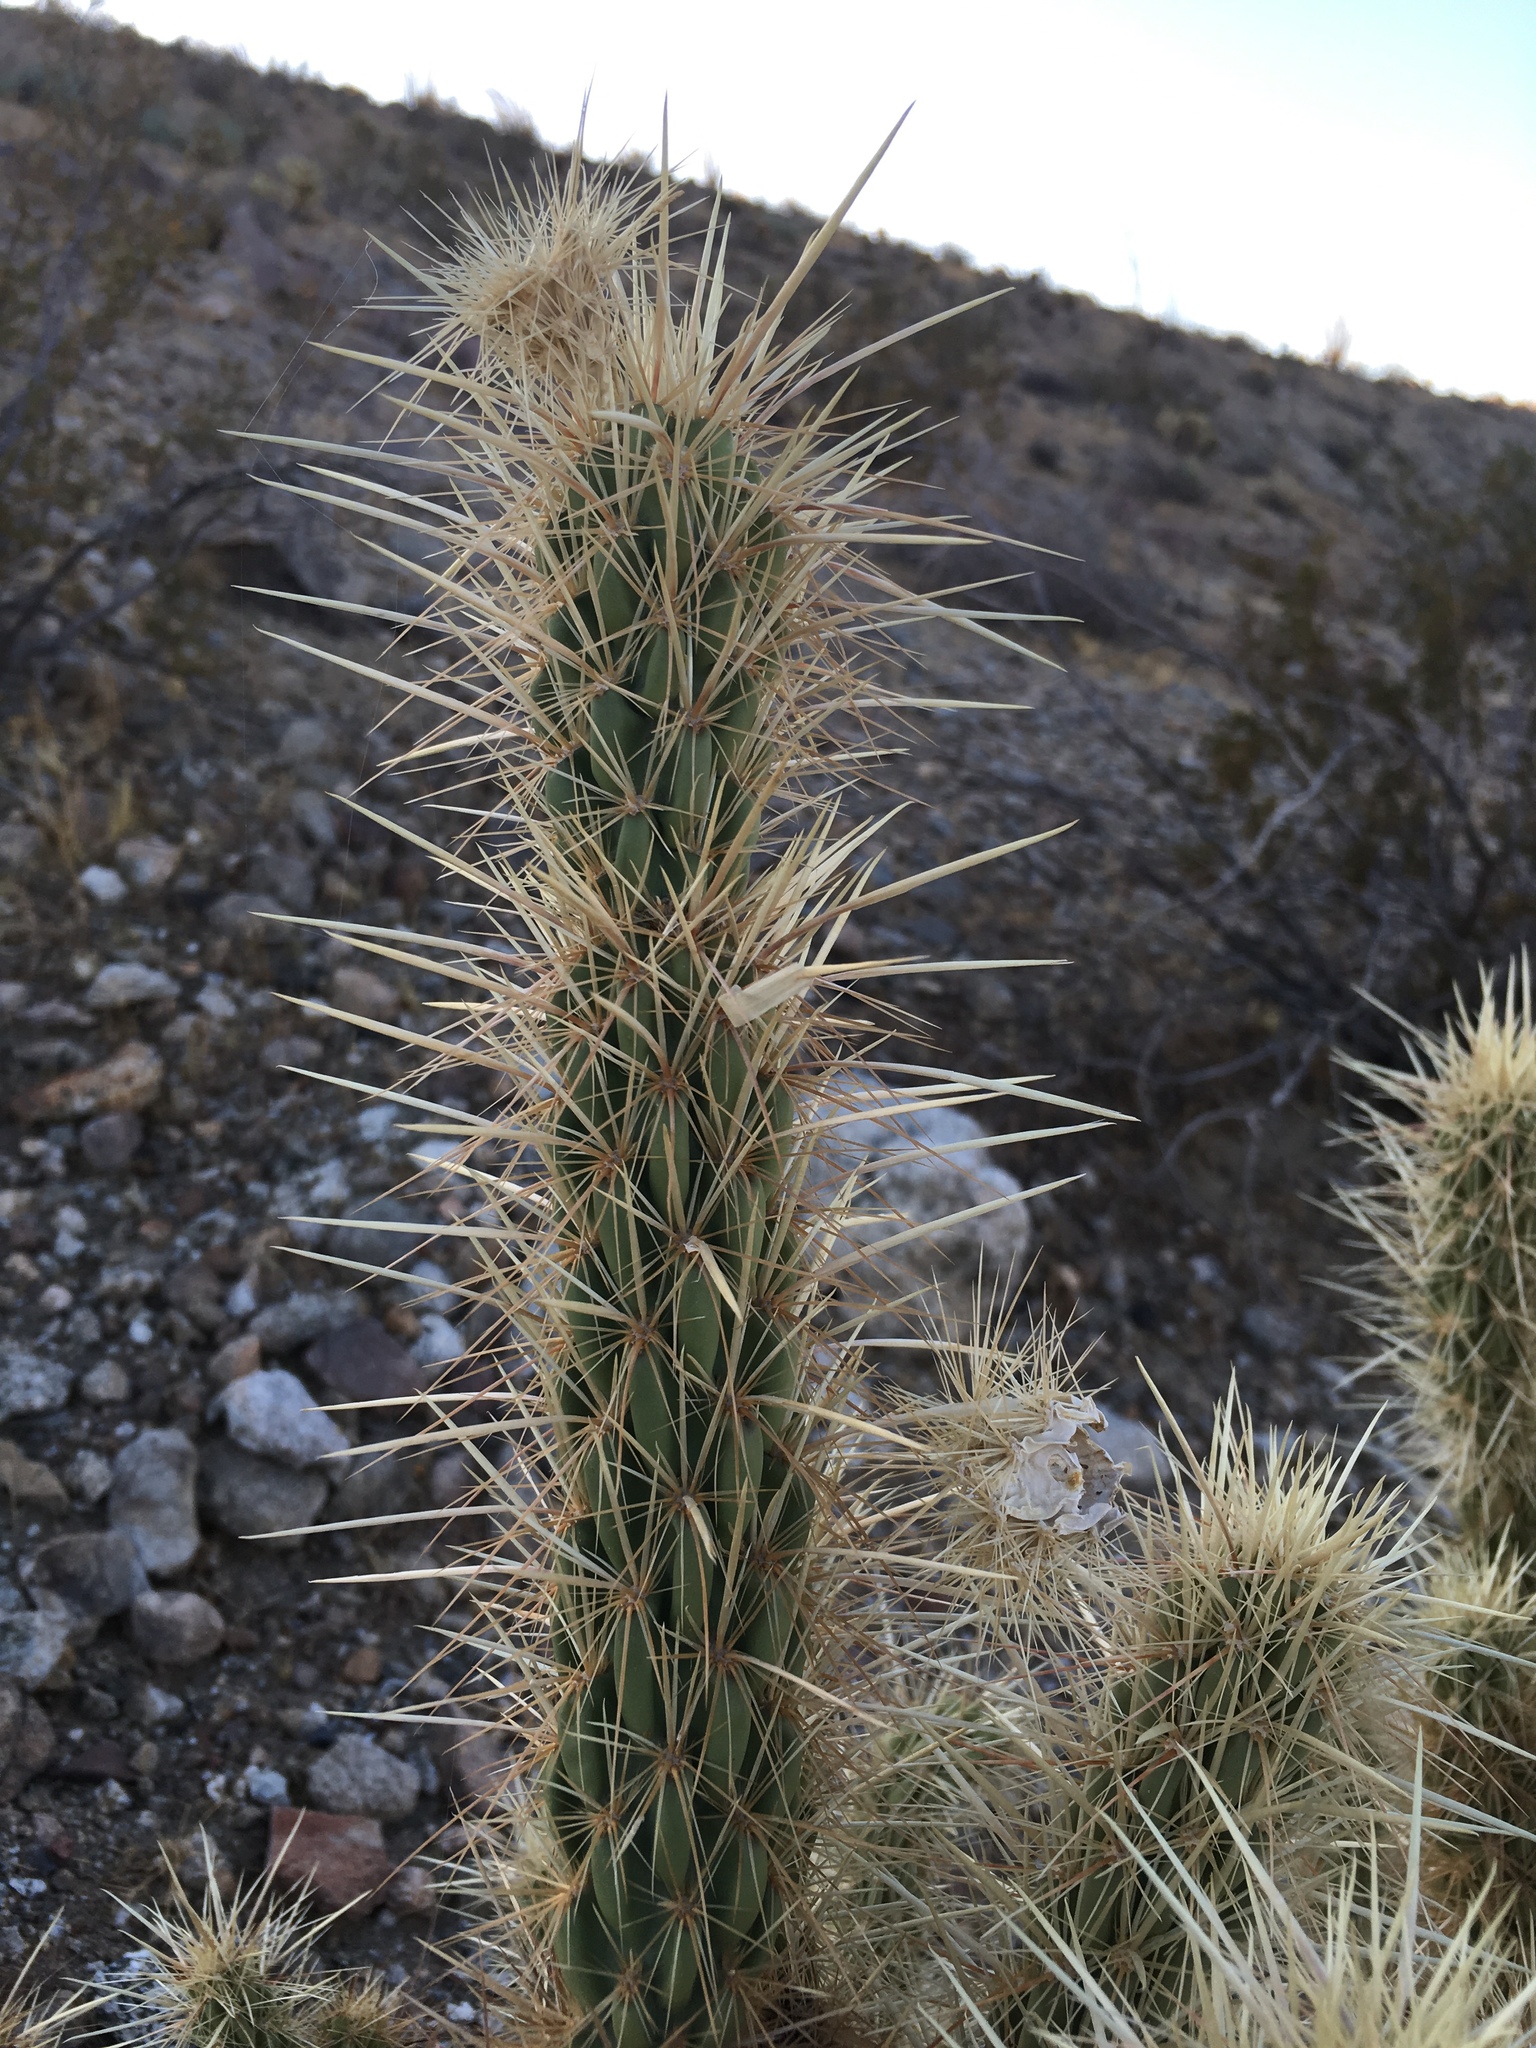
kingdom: Plantae
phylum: Tracheophyta
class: Magnoliopsida
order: Caryophyllales
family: Cactaceae
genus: Cylindropuntia
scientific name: Cylindropuntia ganderi
